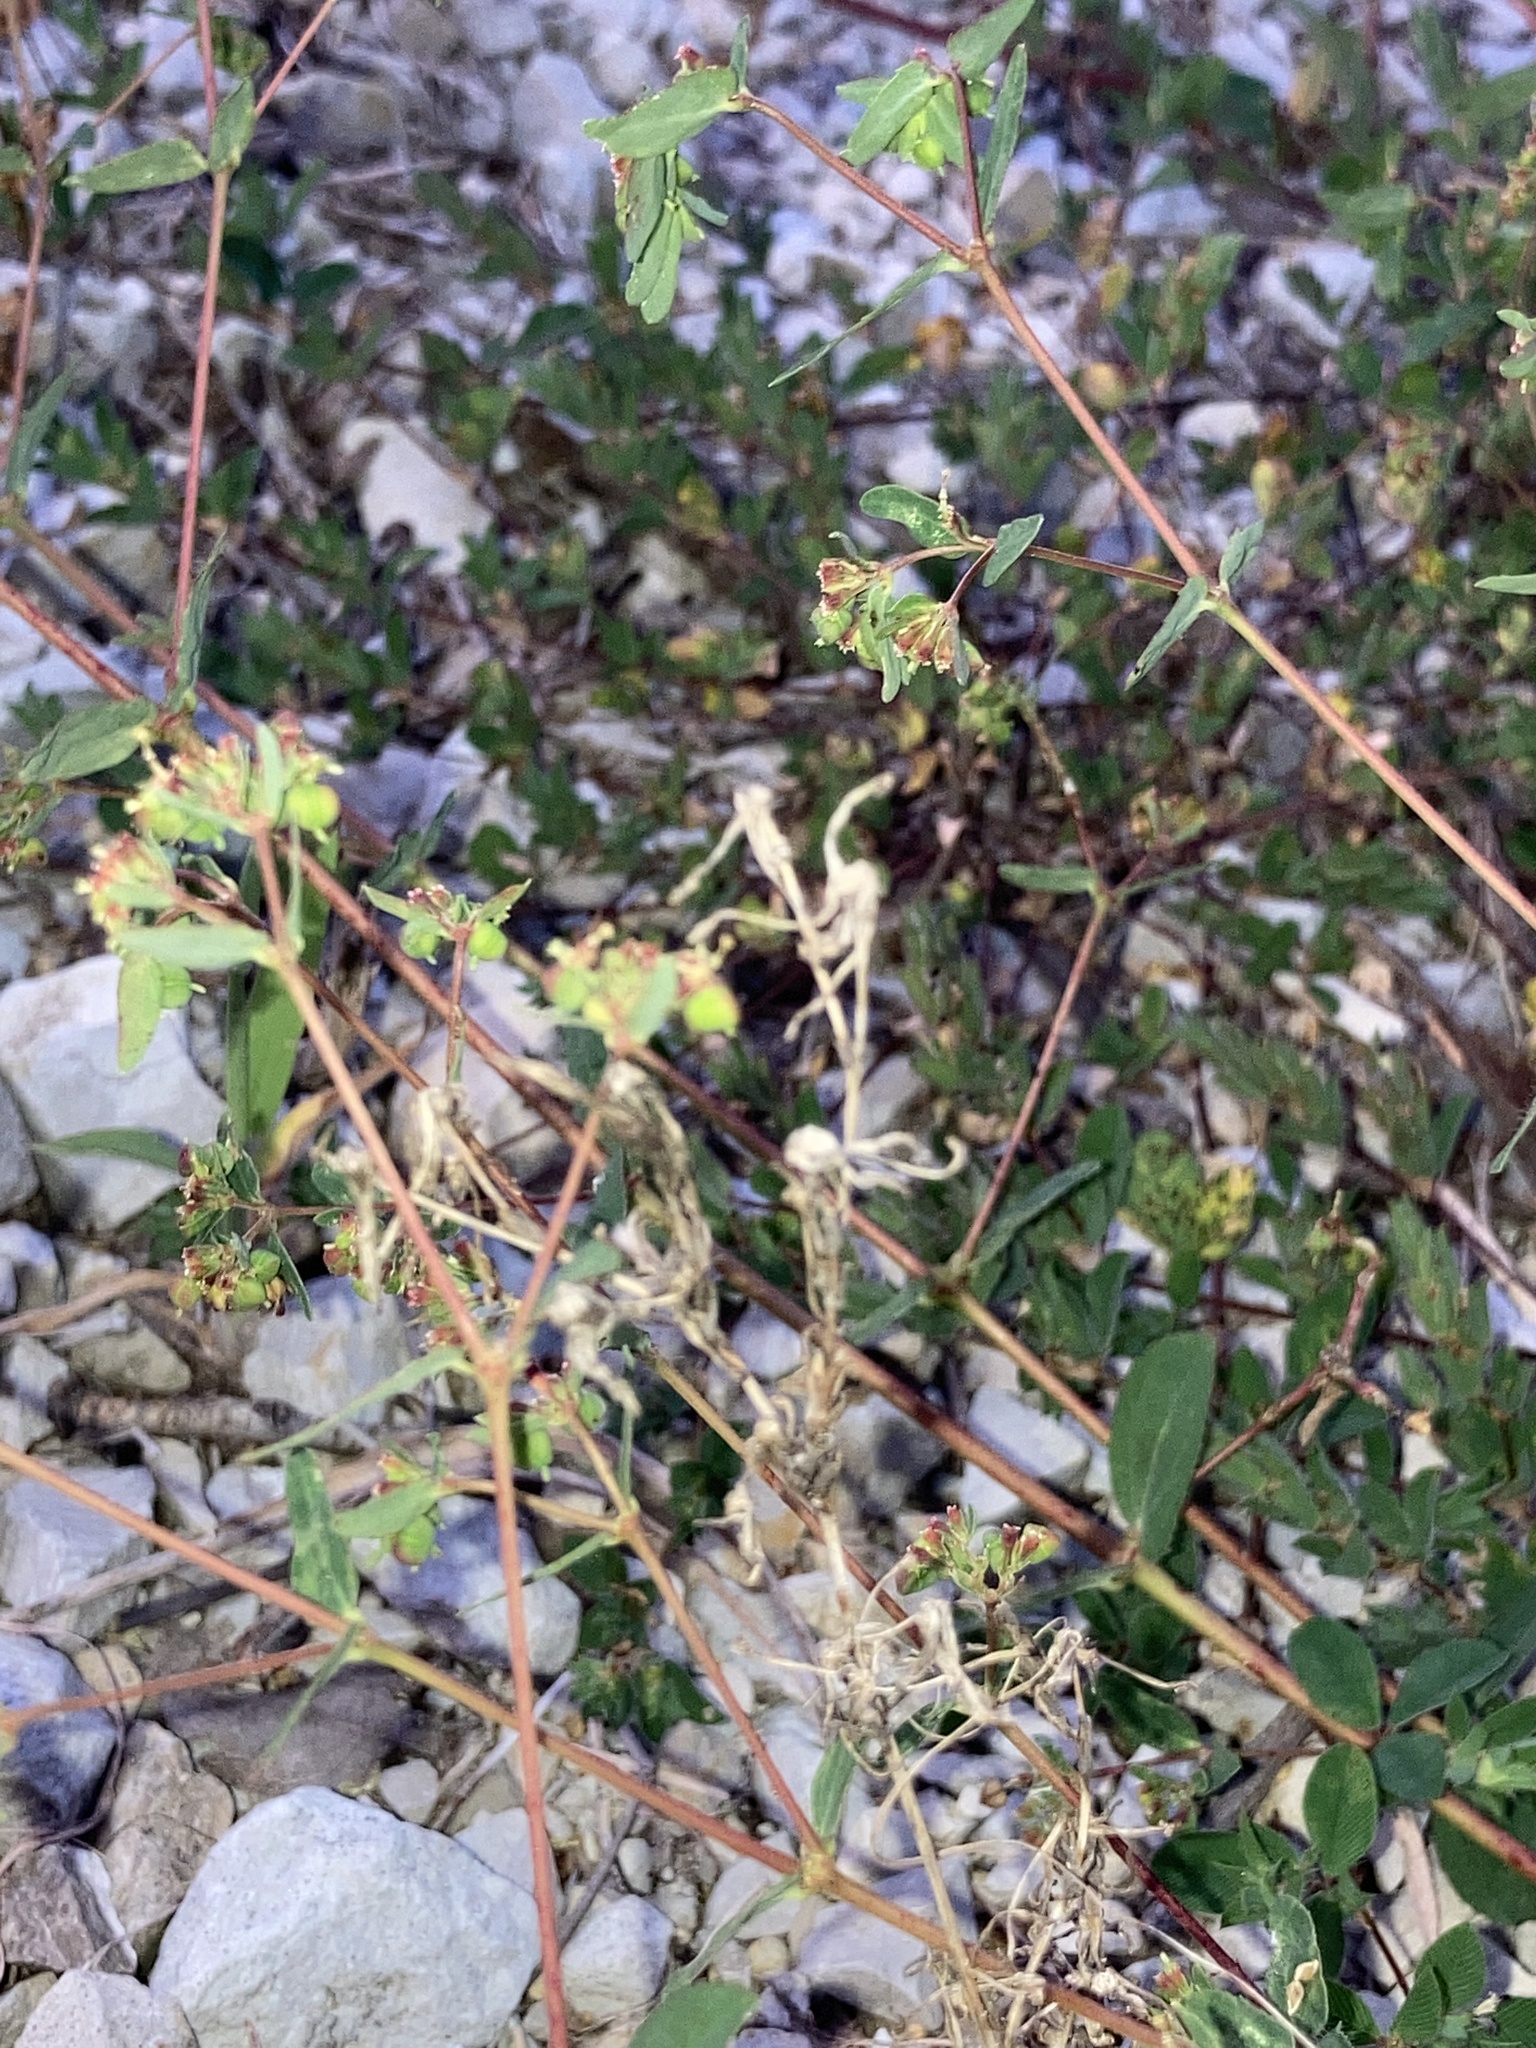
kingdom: Plantae
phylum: Tracheophyta
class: Magnoliopsida
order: Malpighiales
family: Euphorbiaceae
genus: Euphorbia
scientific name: Euphorbia nutans
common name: Eyebane
